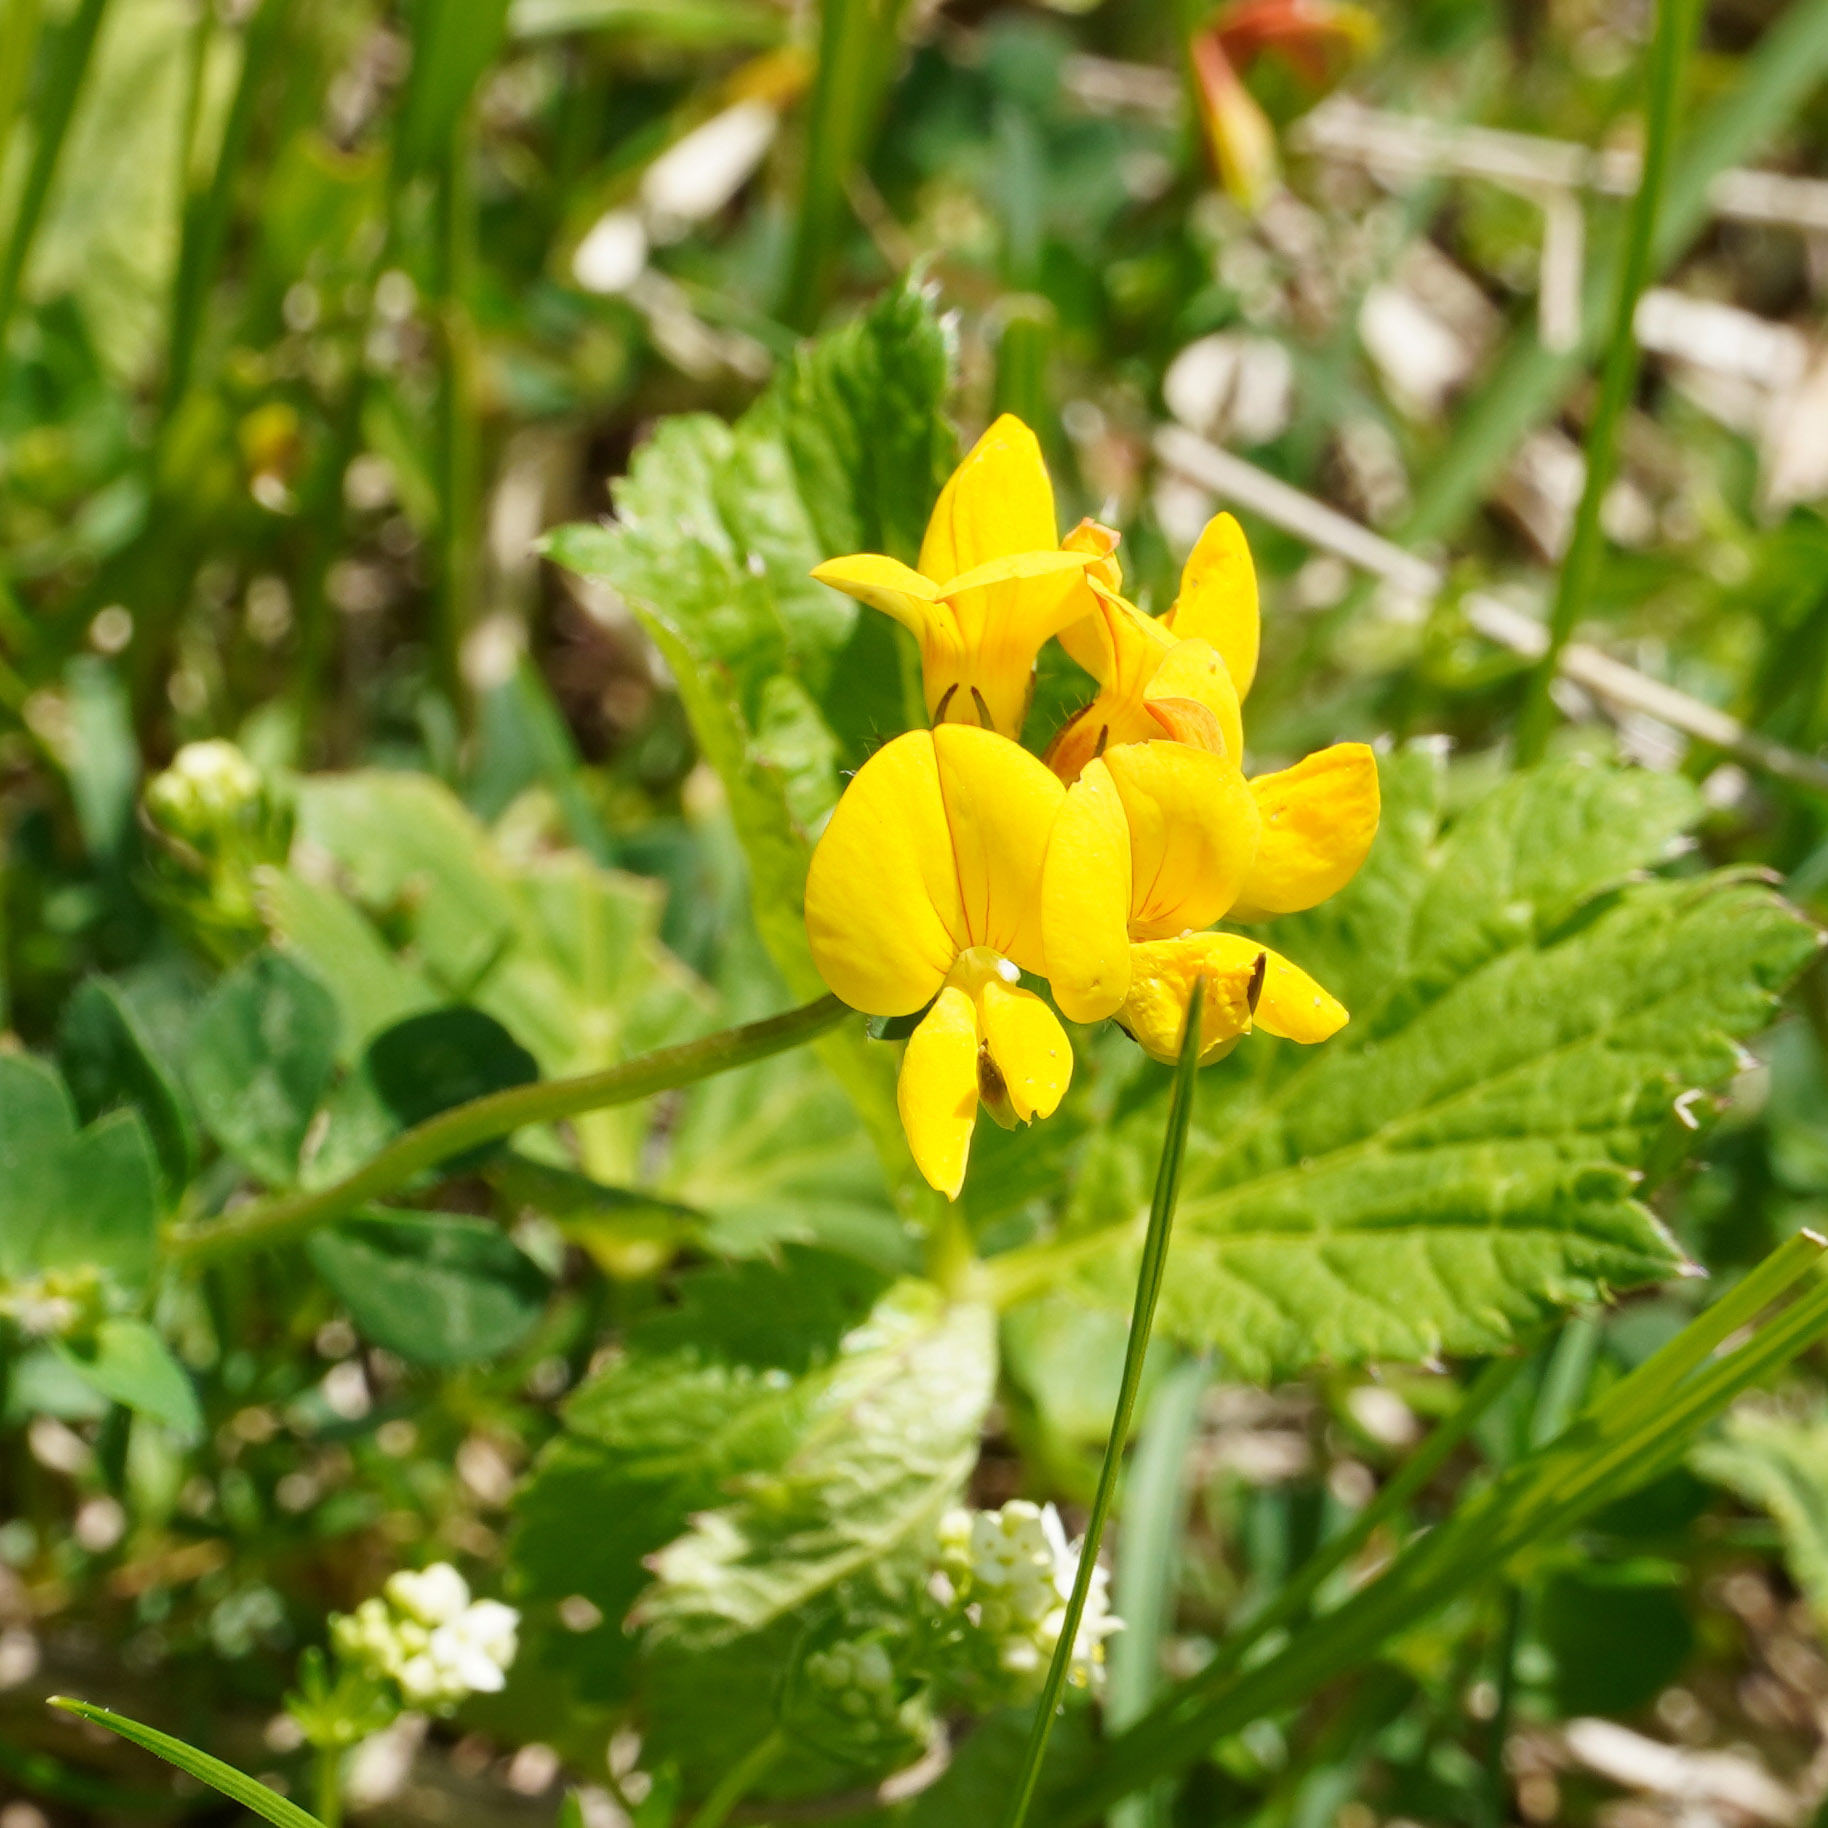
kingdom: Plantae
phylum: Tracheophyta
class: Magnoliopsida
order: Fabales
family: Fabaceae
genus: Lotus
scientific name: Lotus corniculatus
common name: Common bird's-foot-trefoil
